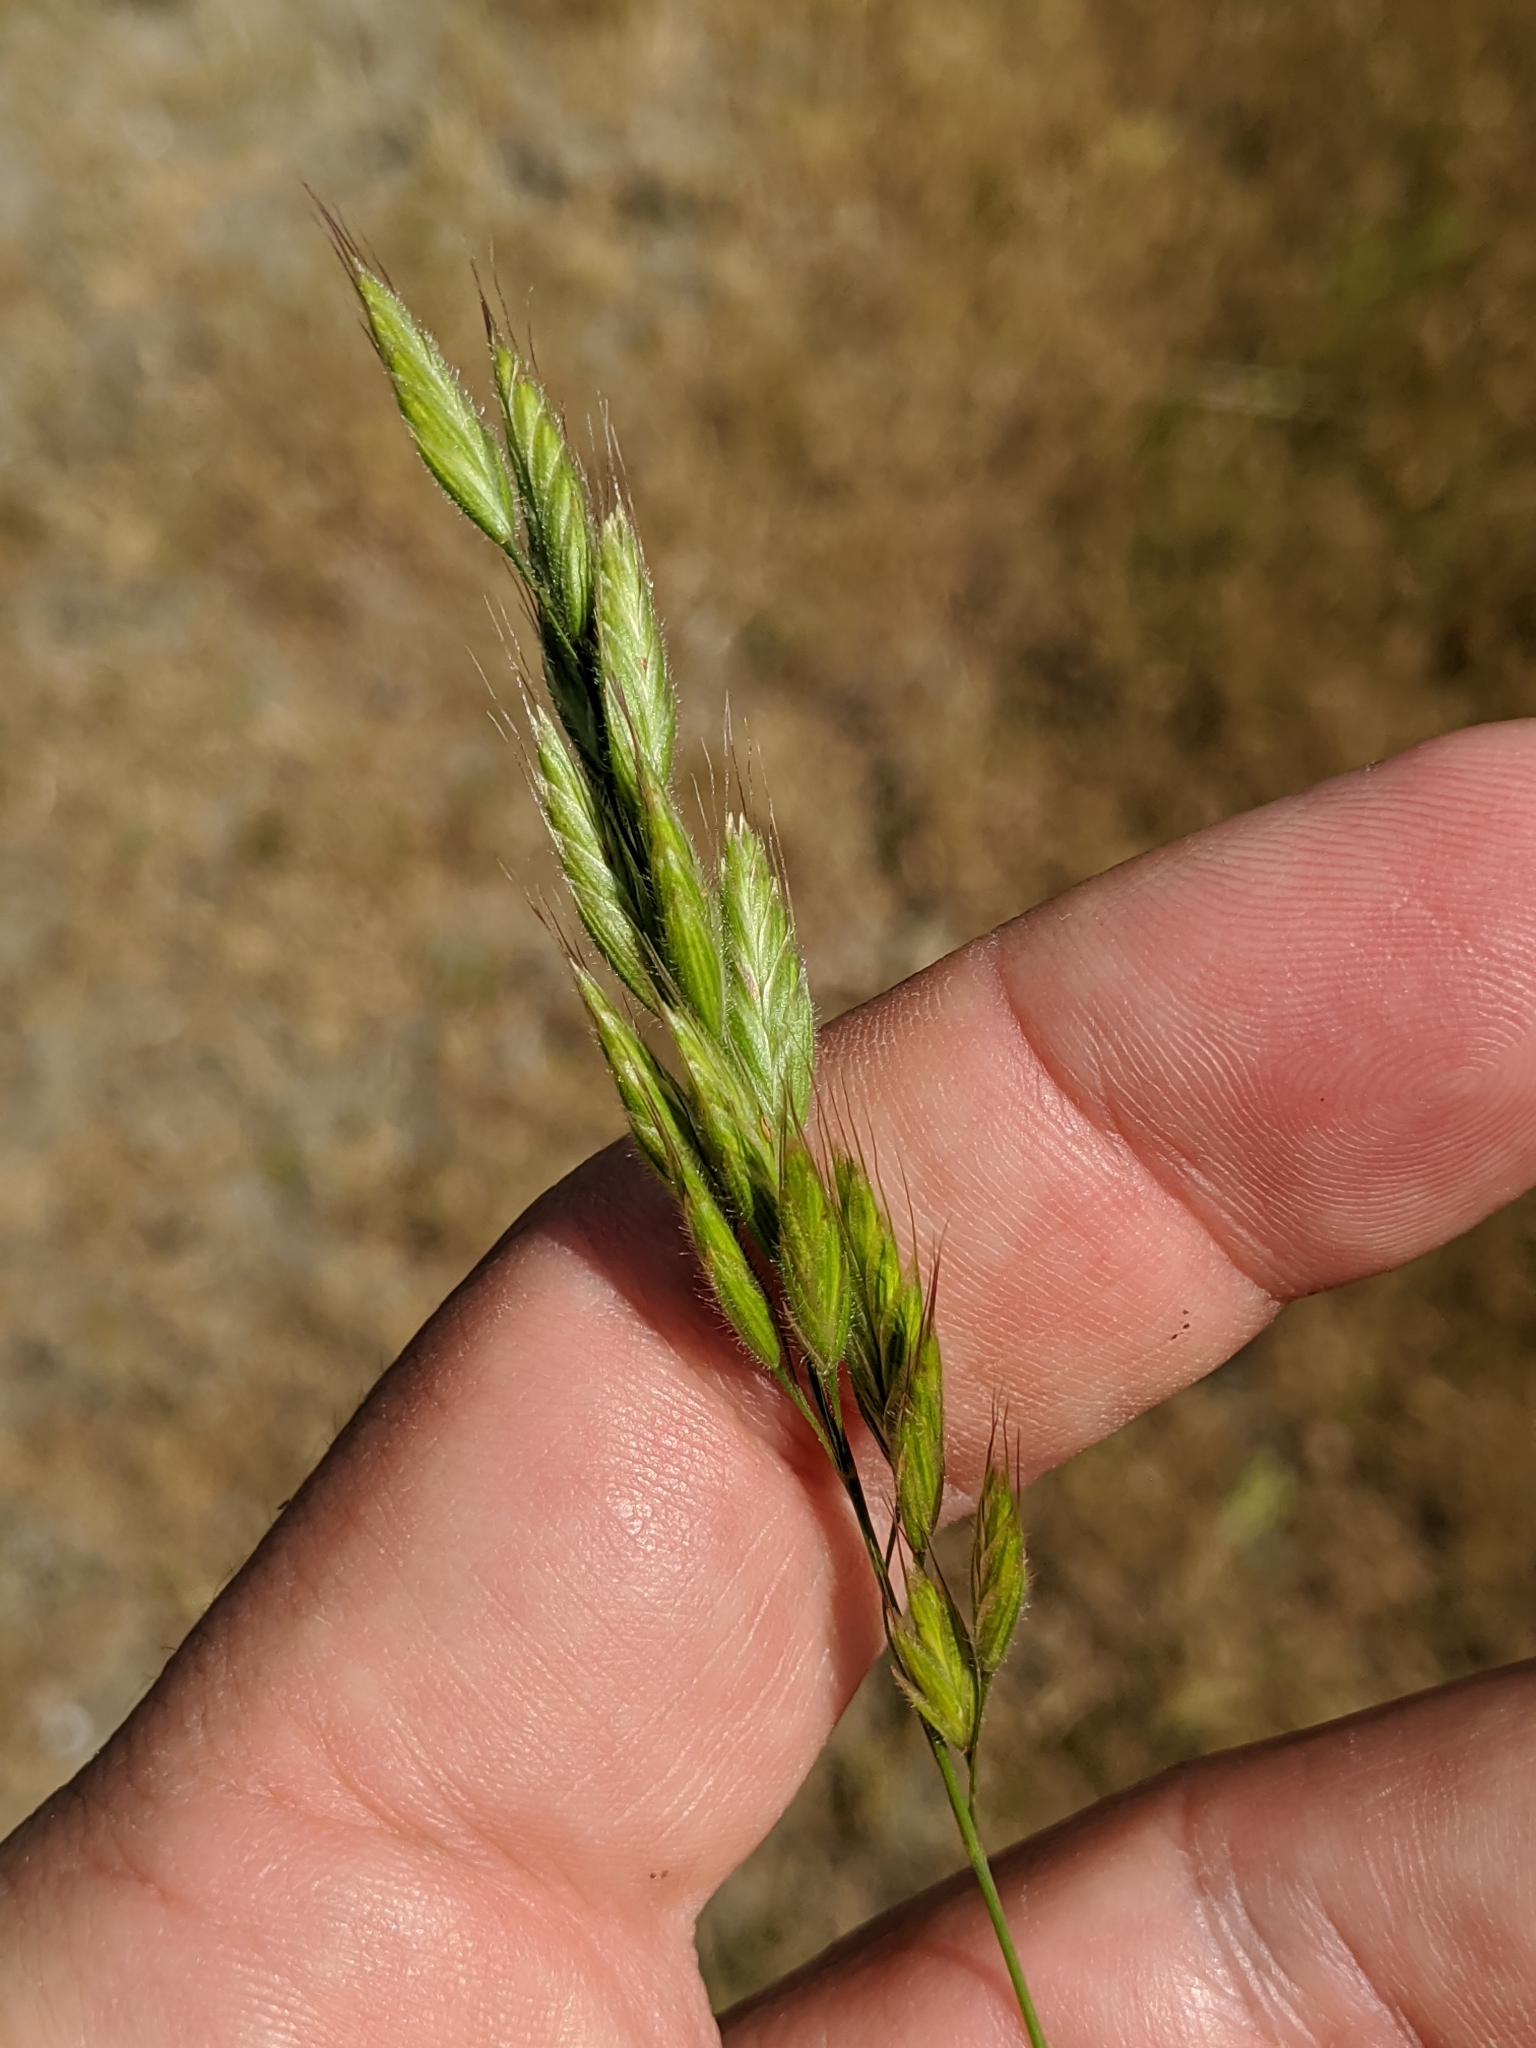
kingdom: Plantae
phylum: Tracheophyta
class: Liliopsida
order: Poales
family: Poaceae
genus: Bromus
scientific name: Bromus hordeaceus
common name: Soft brome
